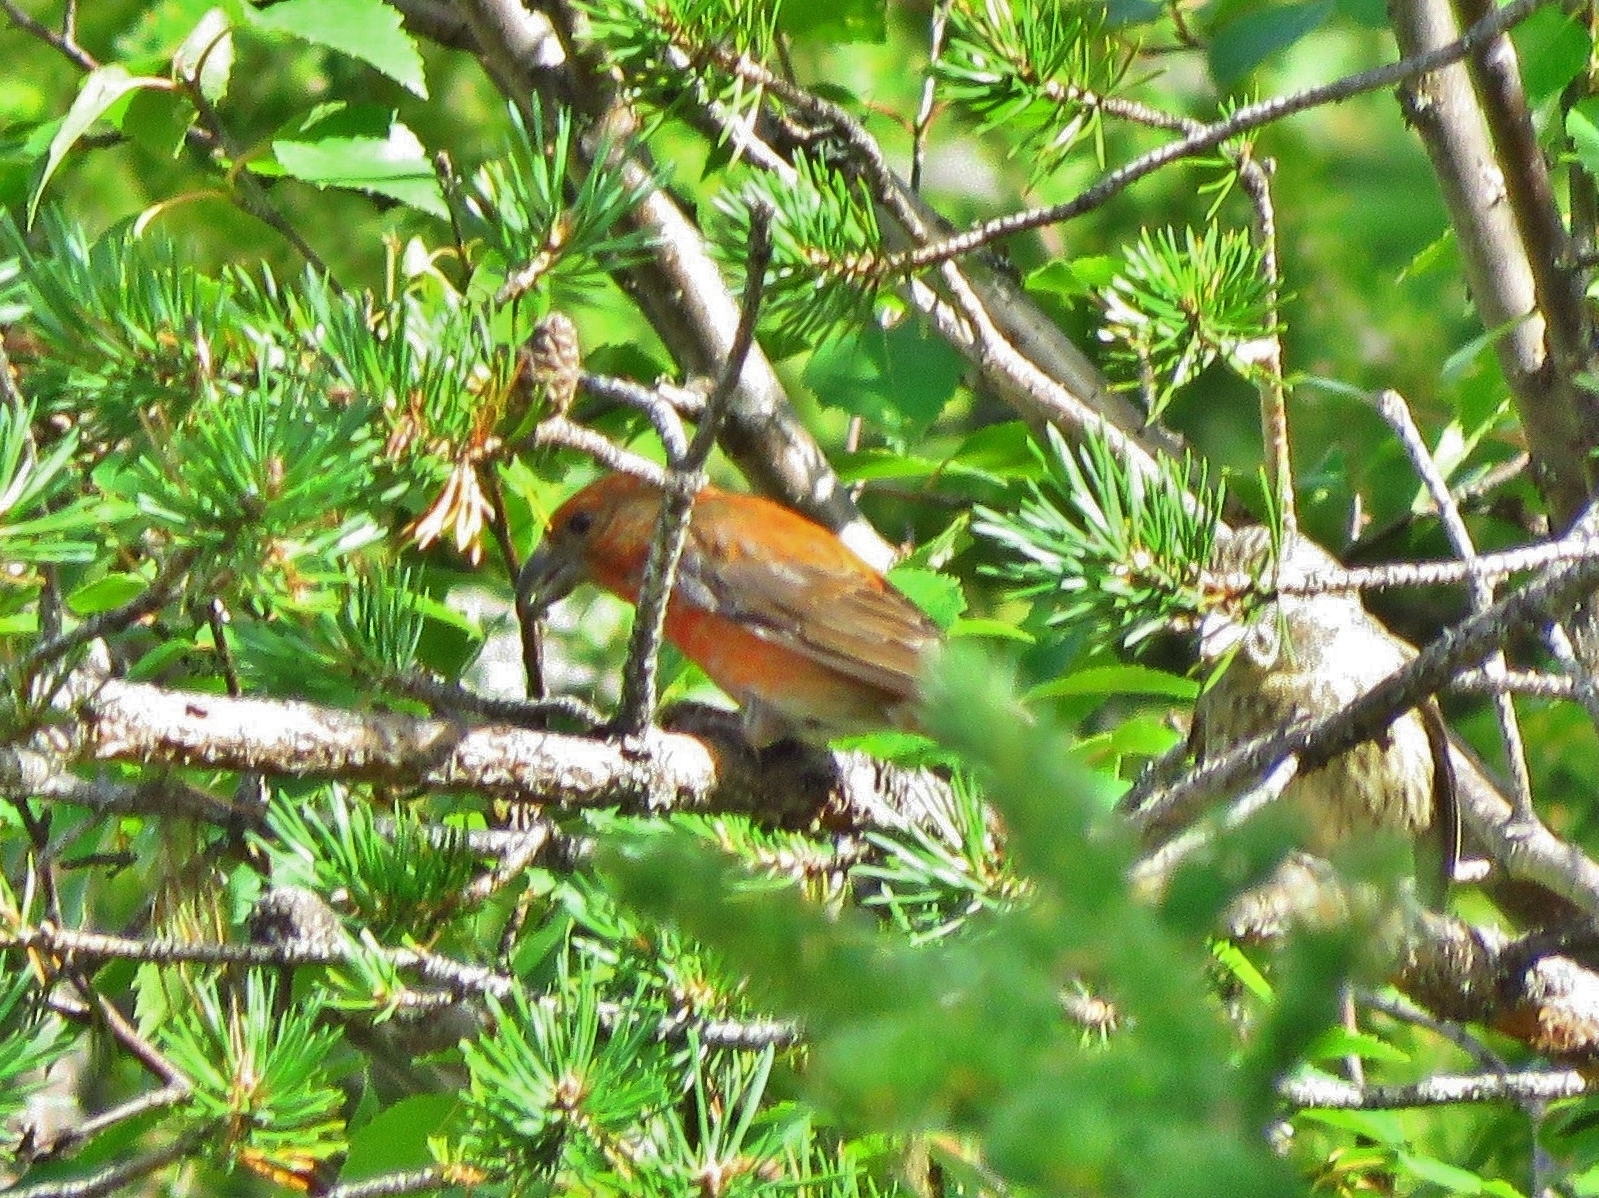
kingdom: Animalia
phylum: Chordata
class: Aves
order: Passeriformes
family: Fringillidae
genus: Loxia
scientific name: Loxia curvirostra
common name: Red crossbill
